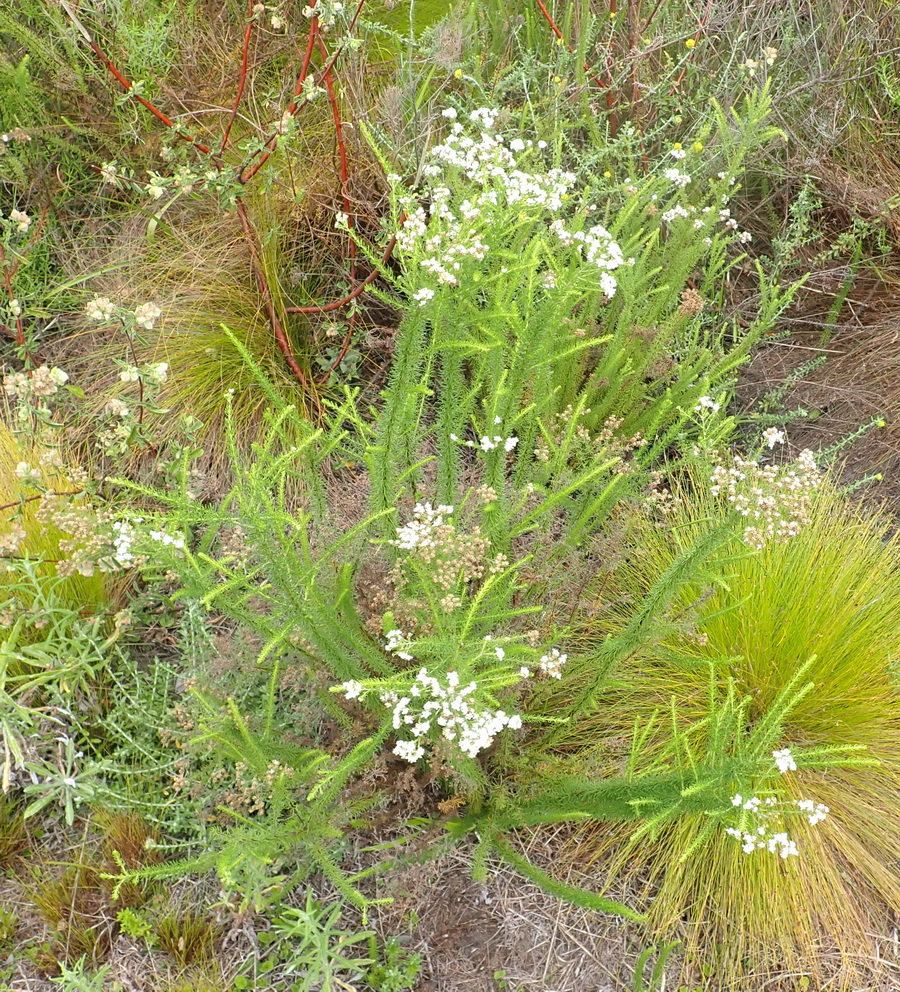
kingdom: Plantae
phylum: Tracheophyta
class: Magnoliopsida
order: Lamiales
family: Scrophulariaceae
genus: Selago
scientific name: Selago corymbosa
